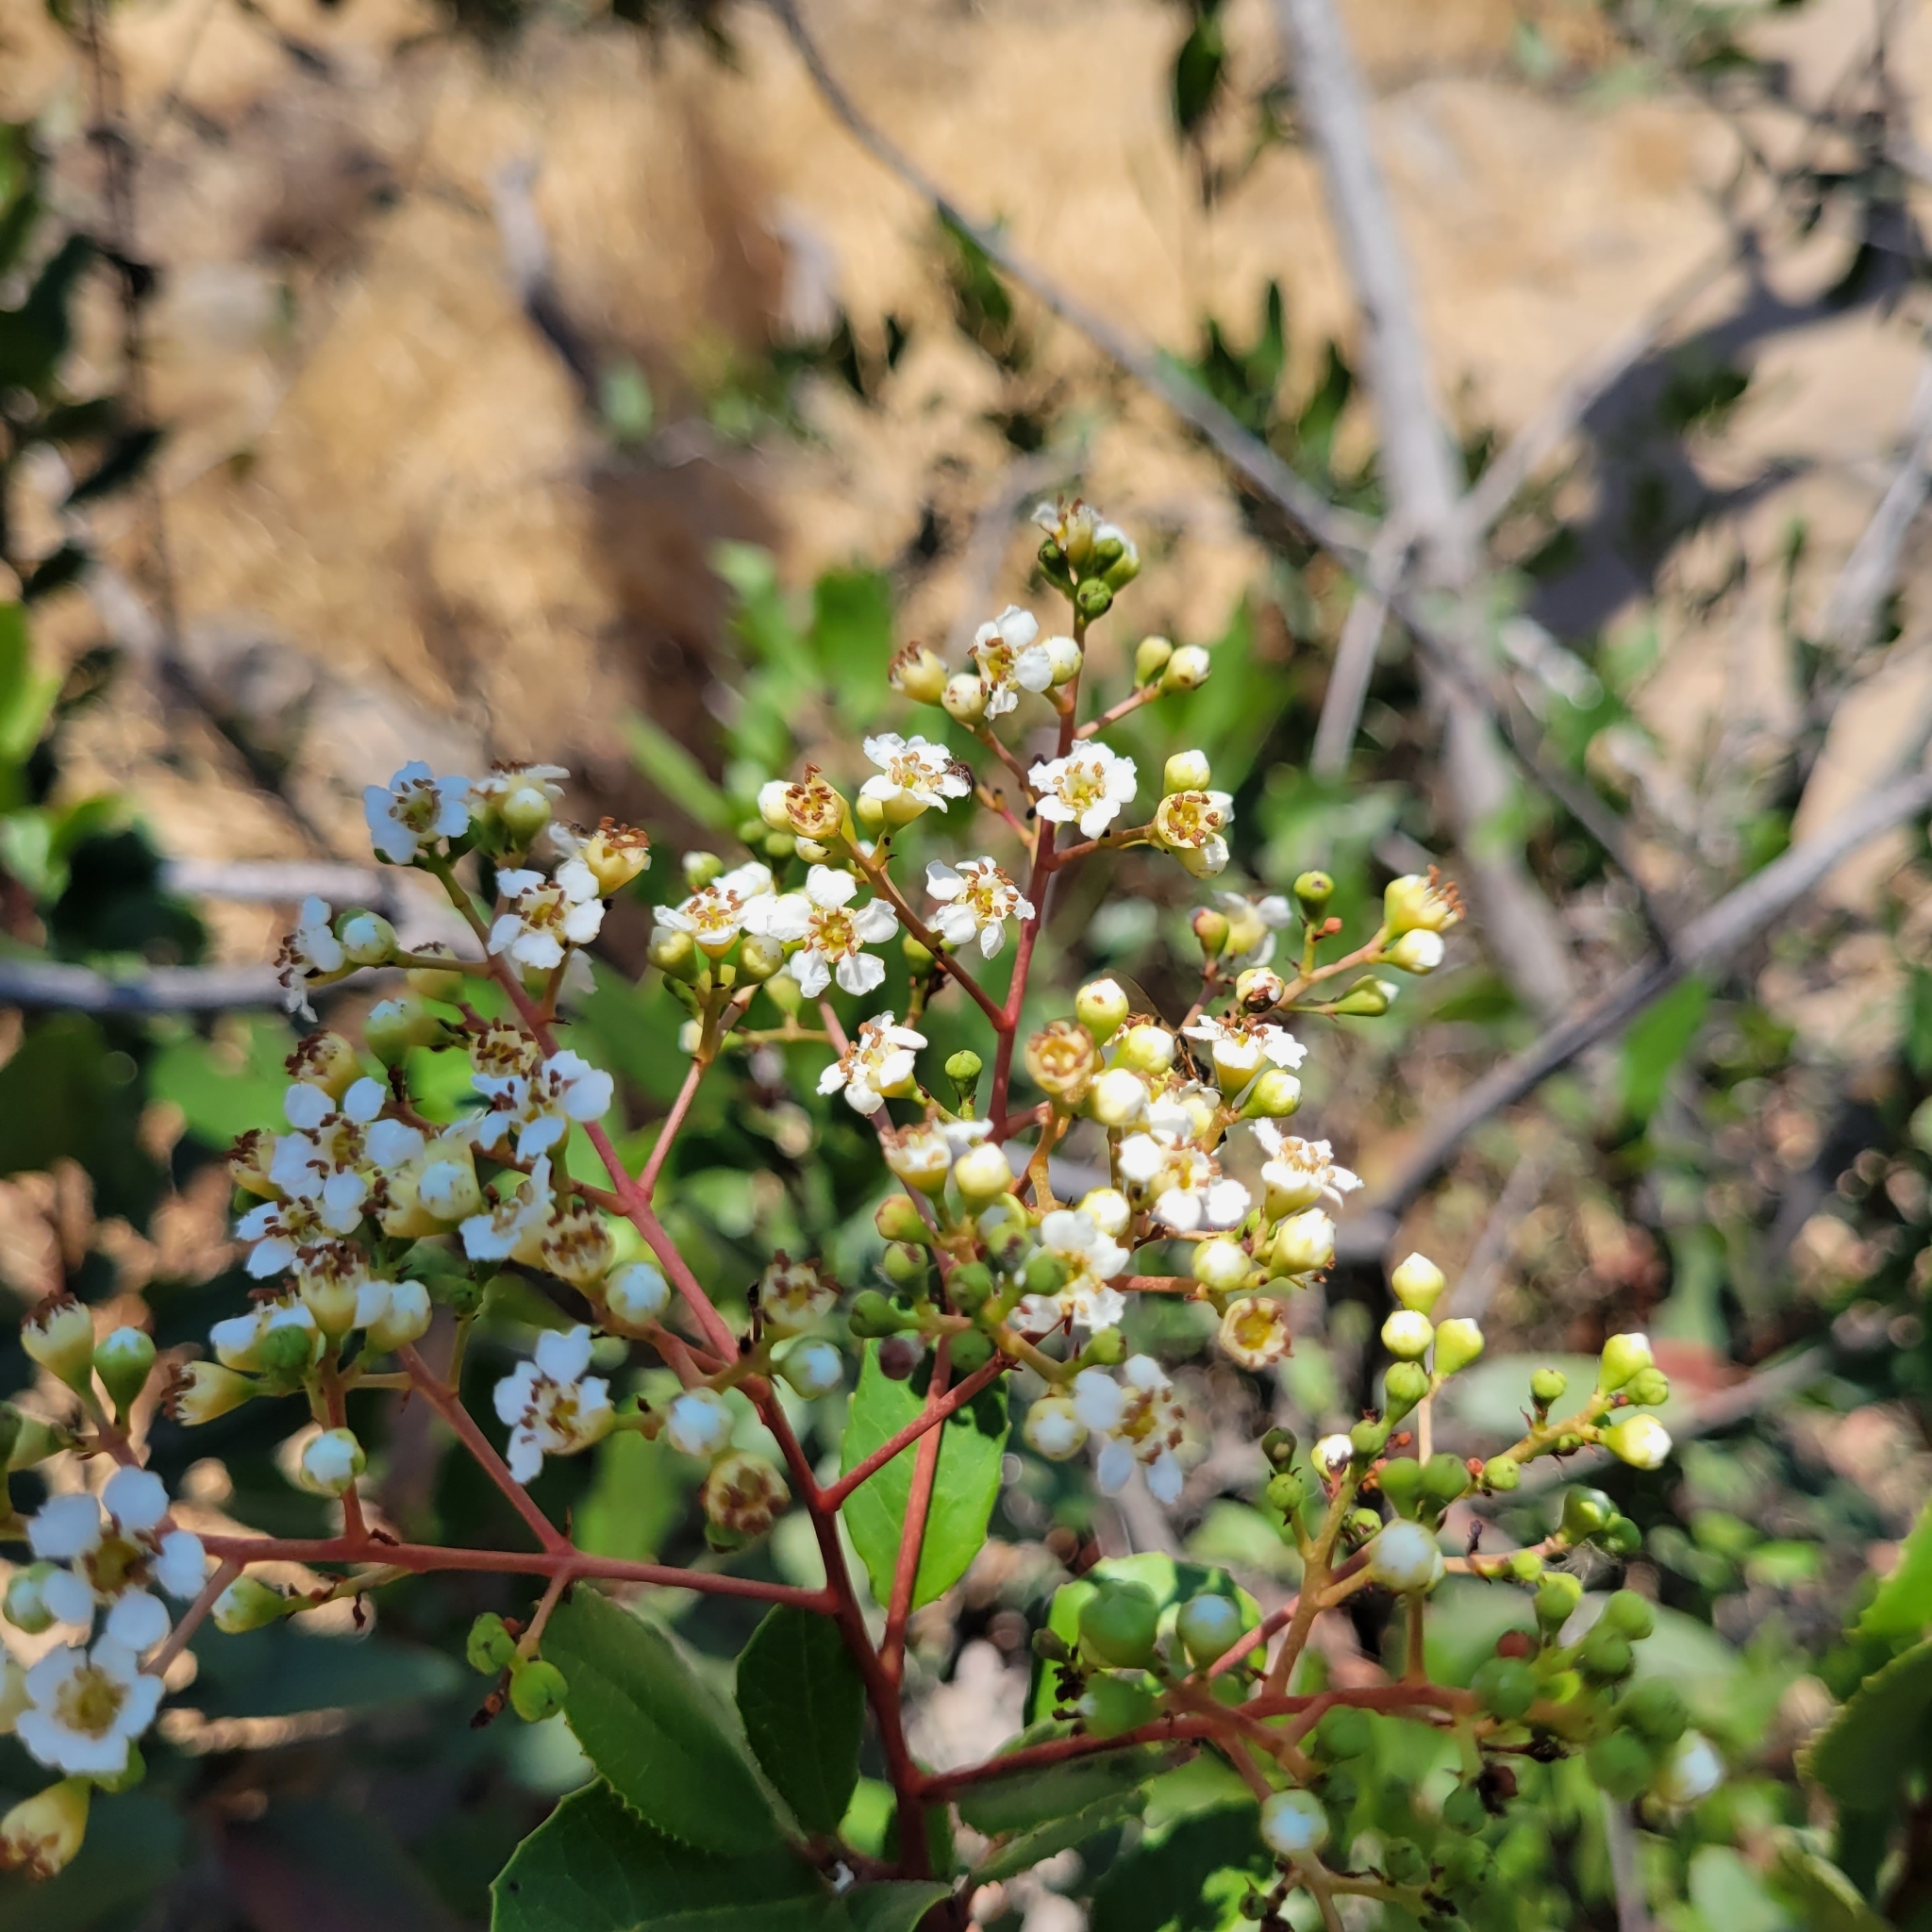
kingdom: Plantae
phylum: Tracheophyta
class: Magnoliopsida
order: Rosales
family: Rosaceae
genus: Heteromeles
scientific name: Heteromeles arbutifolia
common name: California-holly
